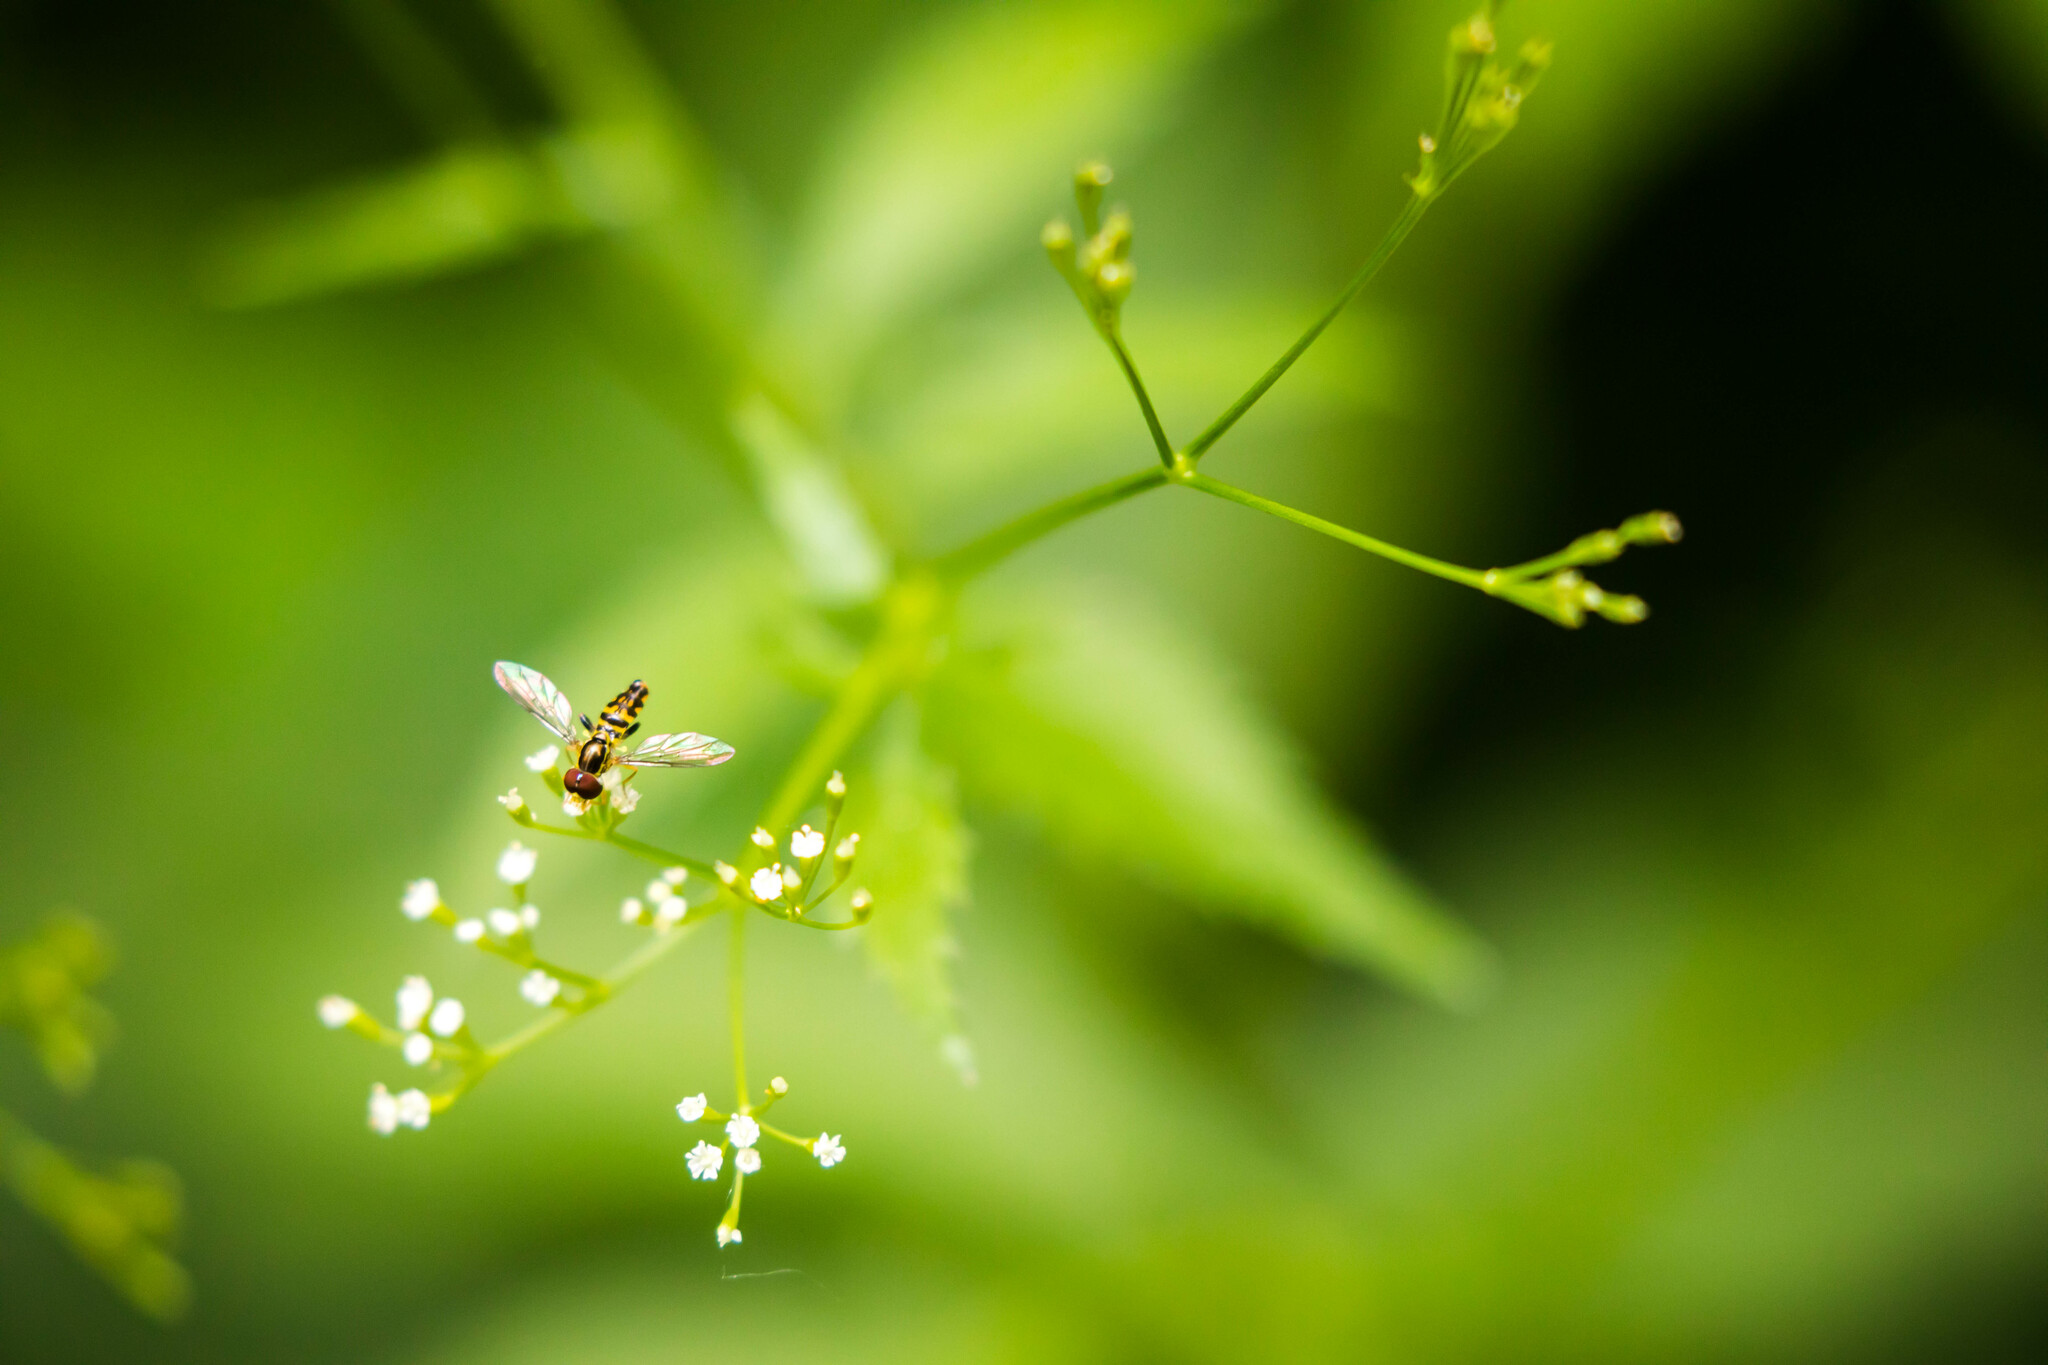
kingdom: Animalia
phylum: Arthropoda
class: Insecta
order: Diptera
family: Syrphidae
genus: Toxomerus
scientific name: Toxomerus geminatus
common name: Eastern calligrapher
